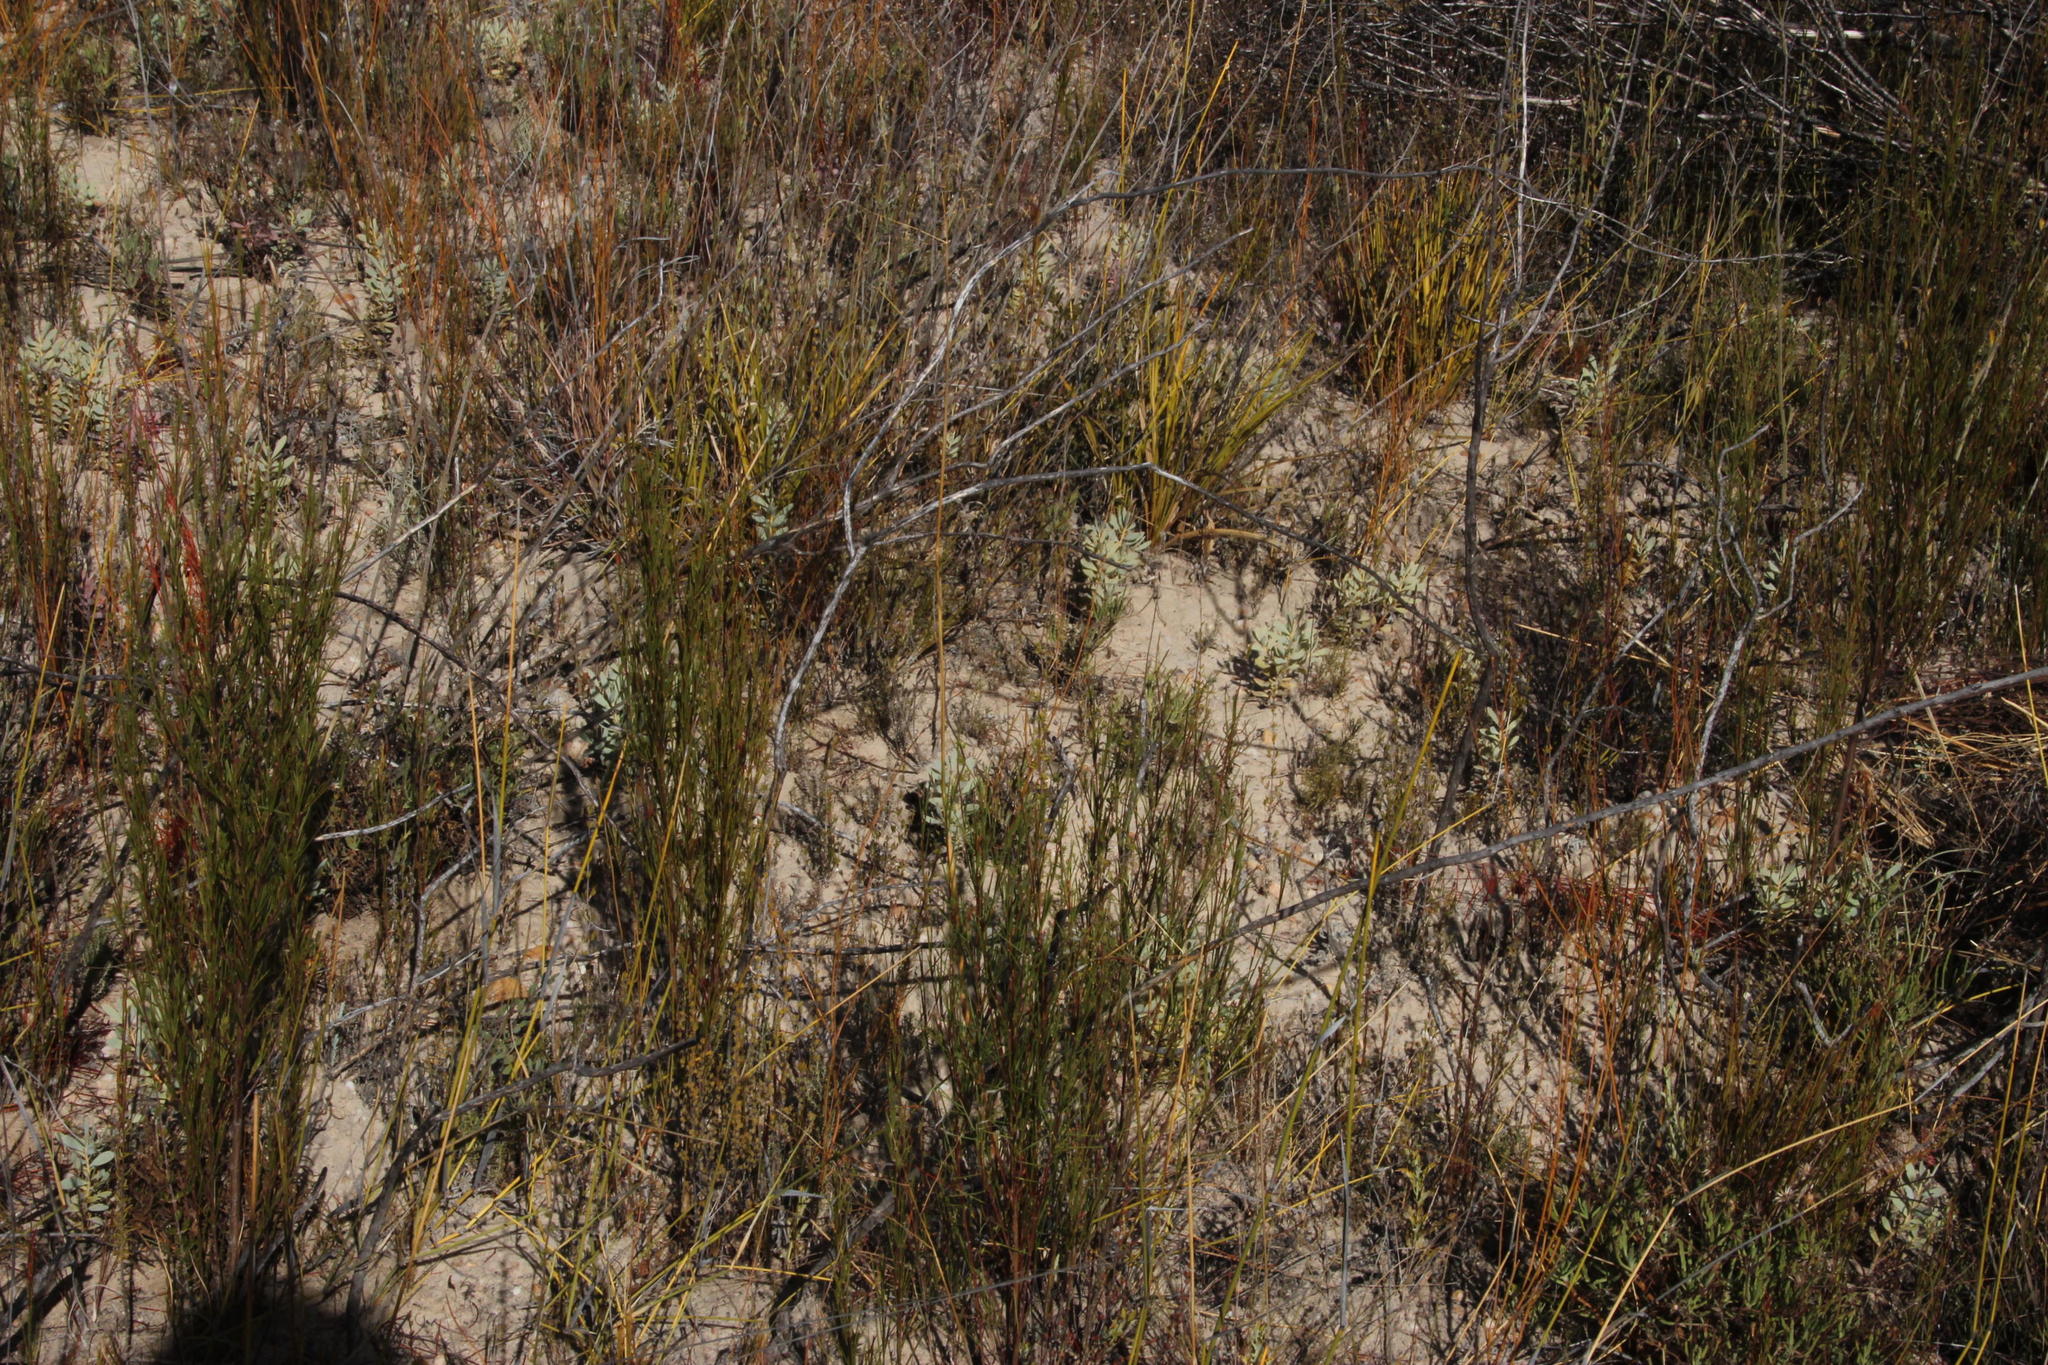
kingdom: Plantae
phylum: Tracheophyta
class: Magnoliopsida
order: Proteales
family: Proteaceae
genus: Leucadendron
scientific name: Leucadendron loranthifolium
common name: Green-flower sunbush
